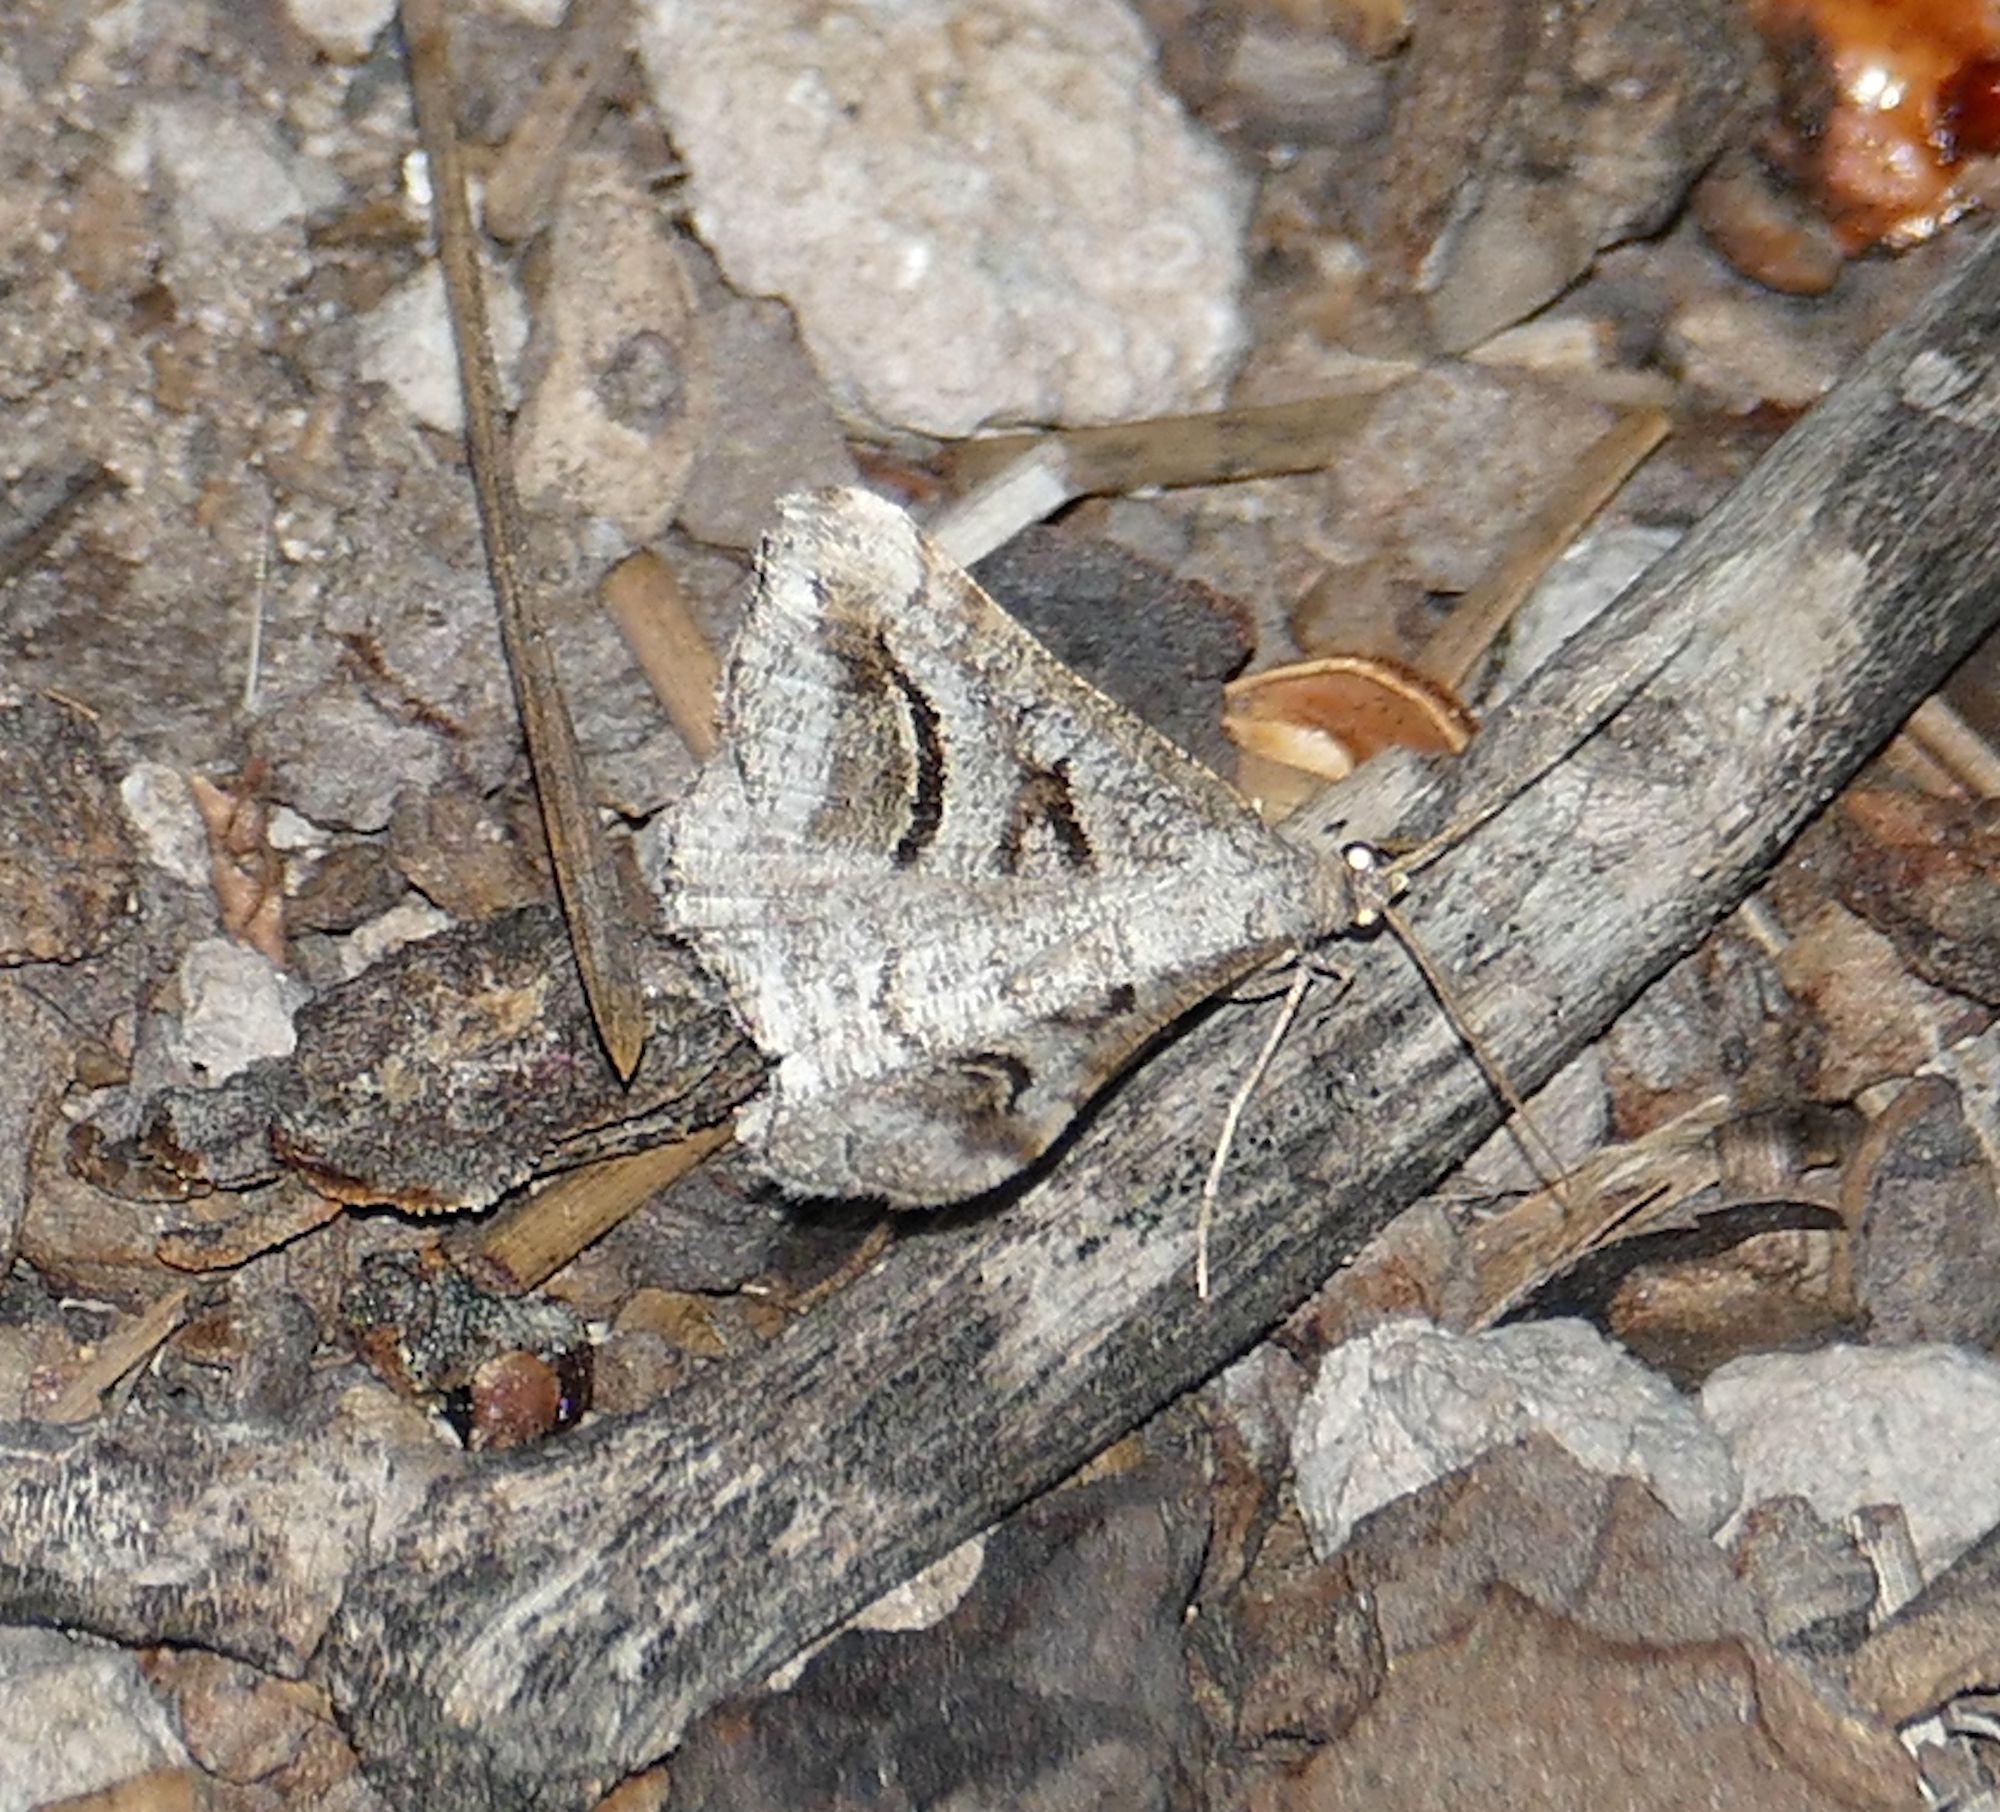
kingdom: Animalia
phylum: Arthropoda
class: Insecta
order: Lepidoptera
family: Geometridae
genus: Digrammia
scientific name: Digrammia curvata
